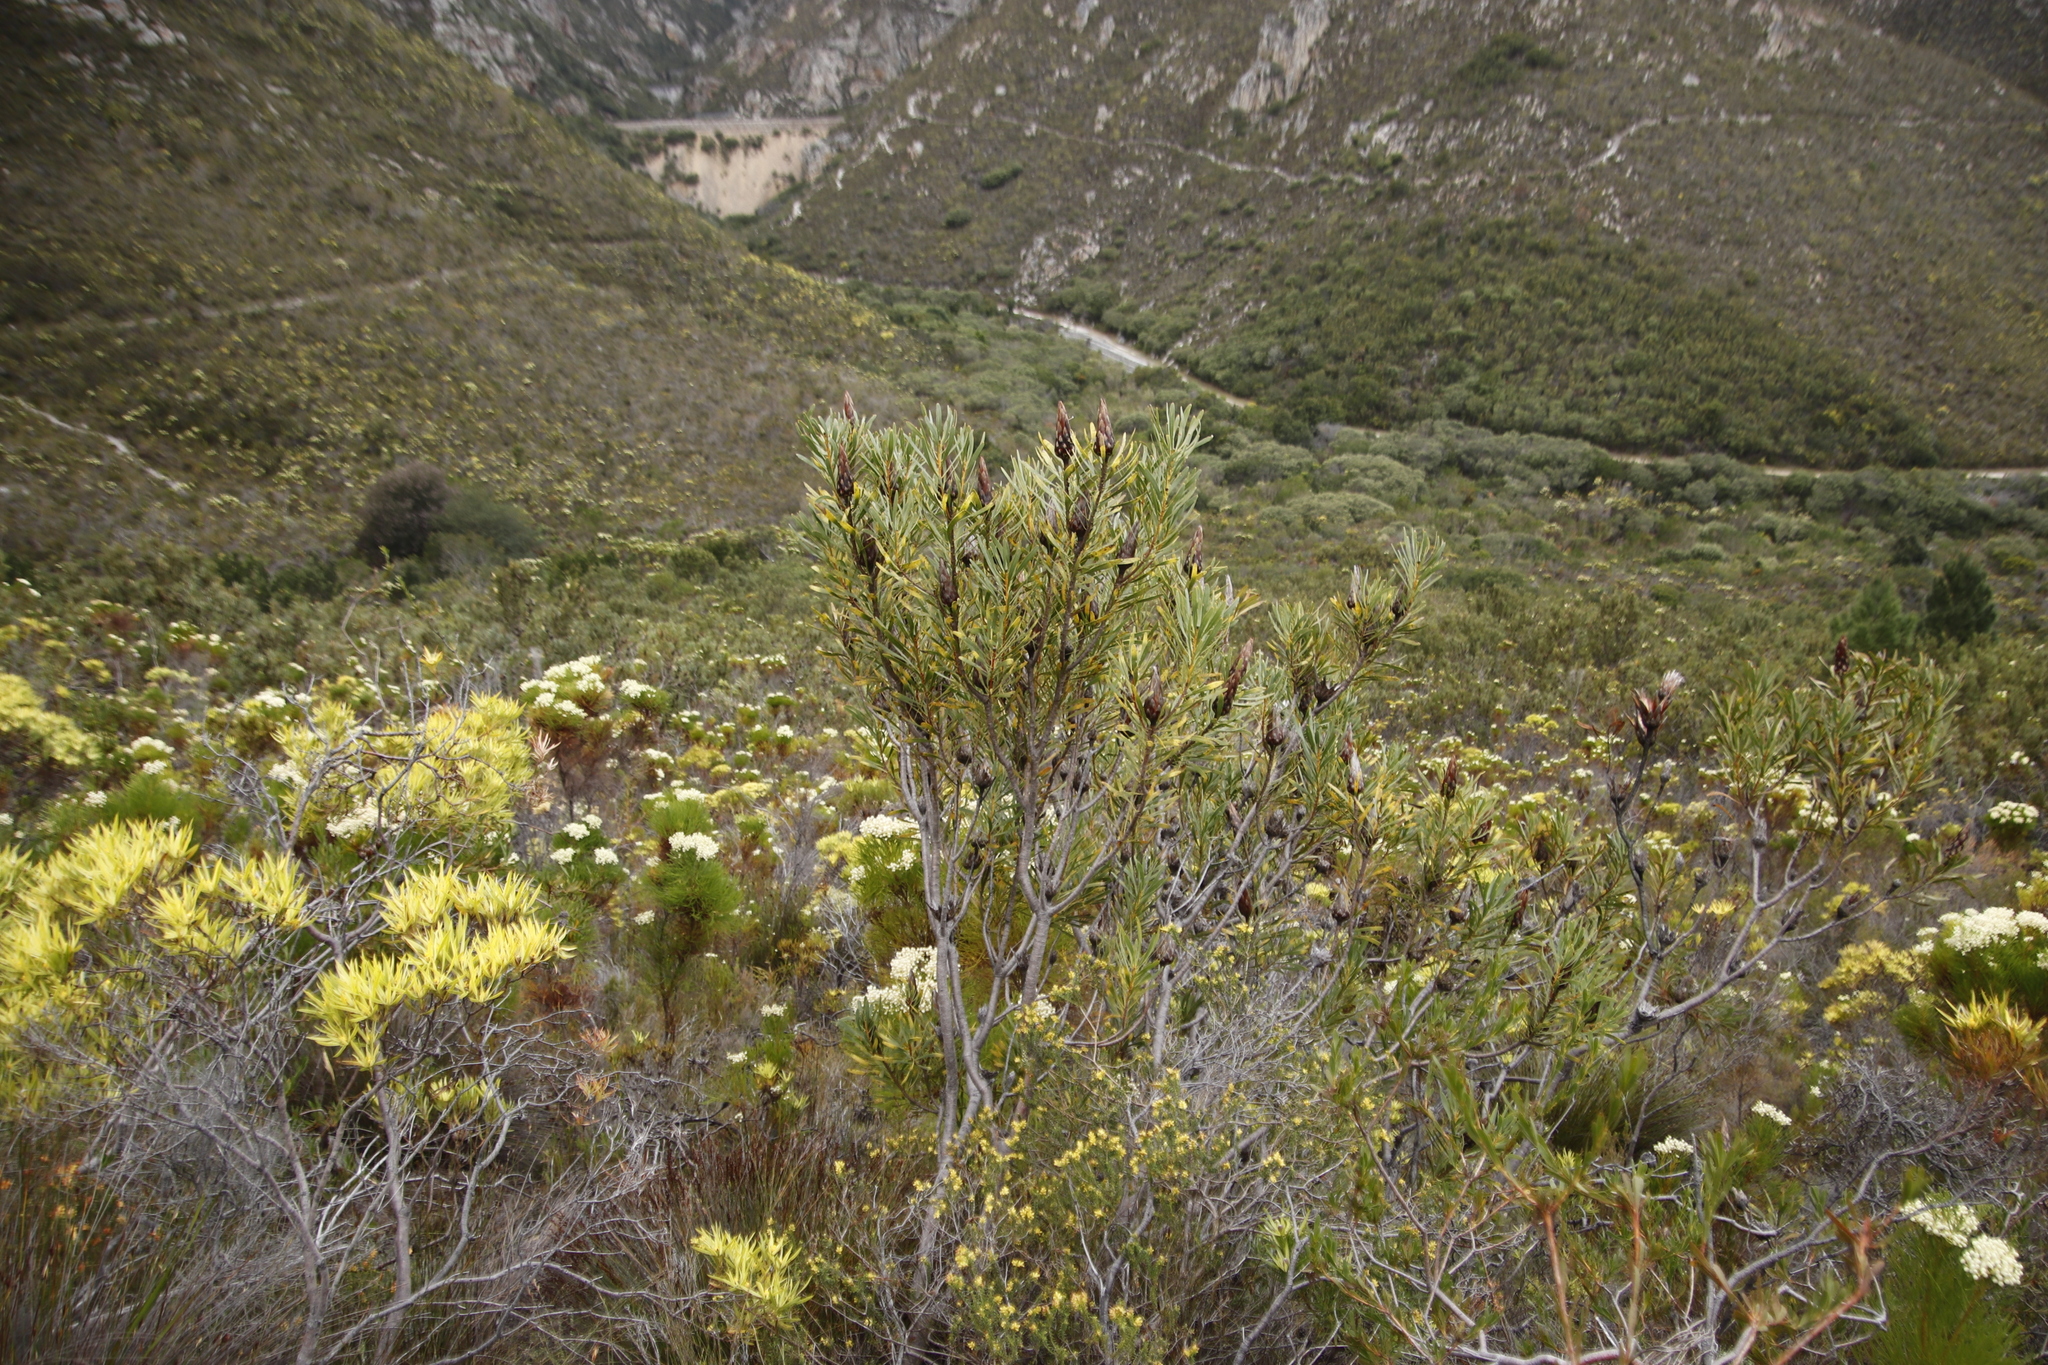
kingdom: Plantae
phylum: Tracheophyta
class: Magnoliopsida
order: Proteales
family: Proteaceae
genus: Protea
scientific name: Protea repens
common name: Sugarbush
